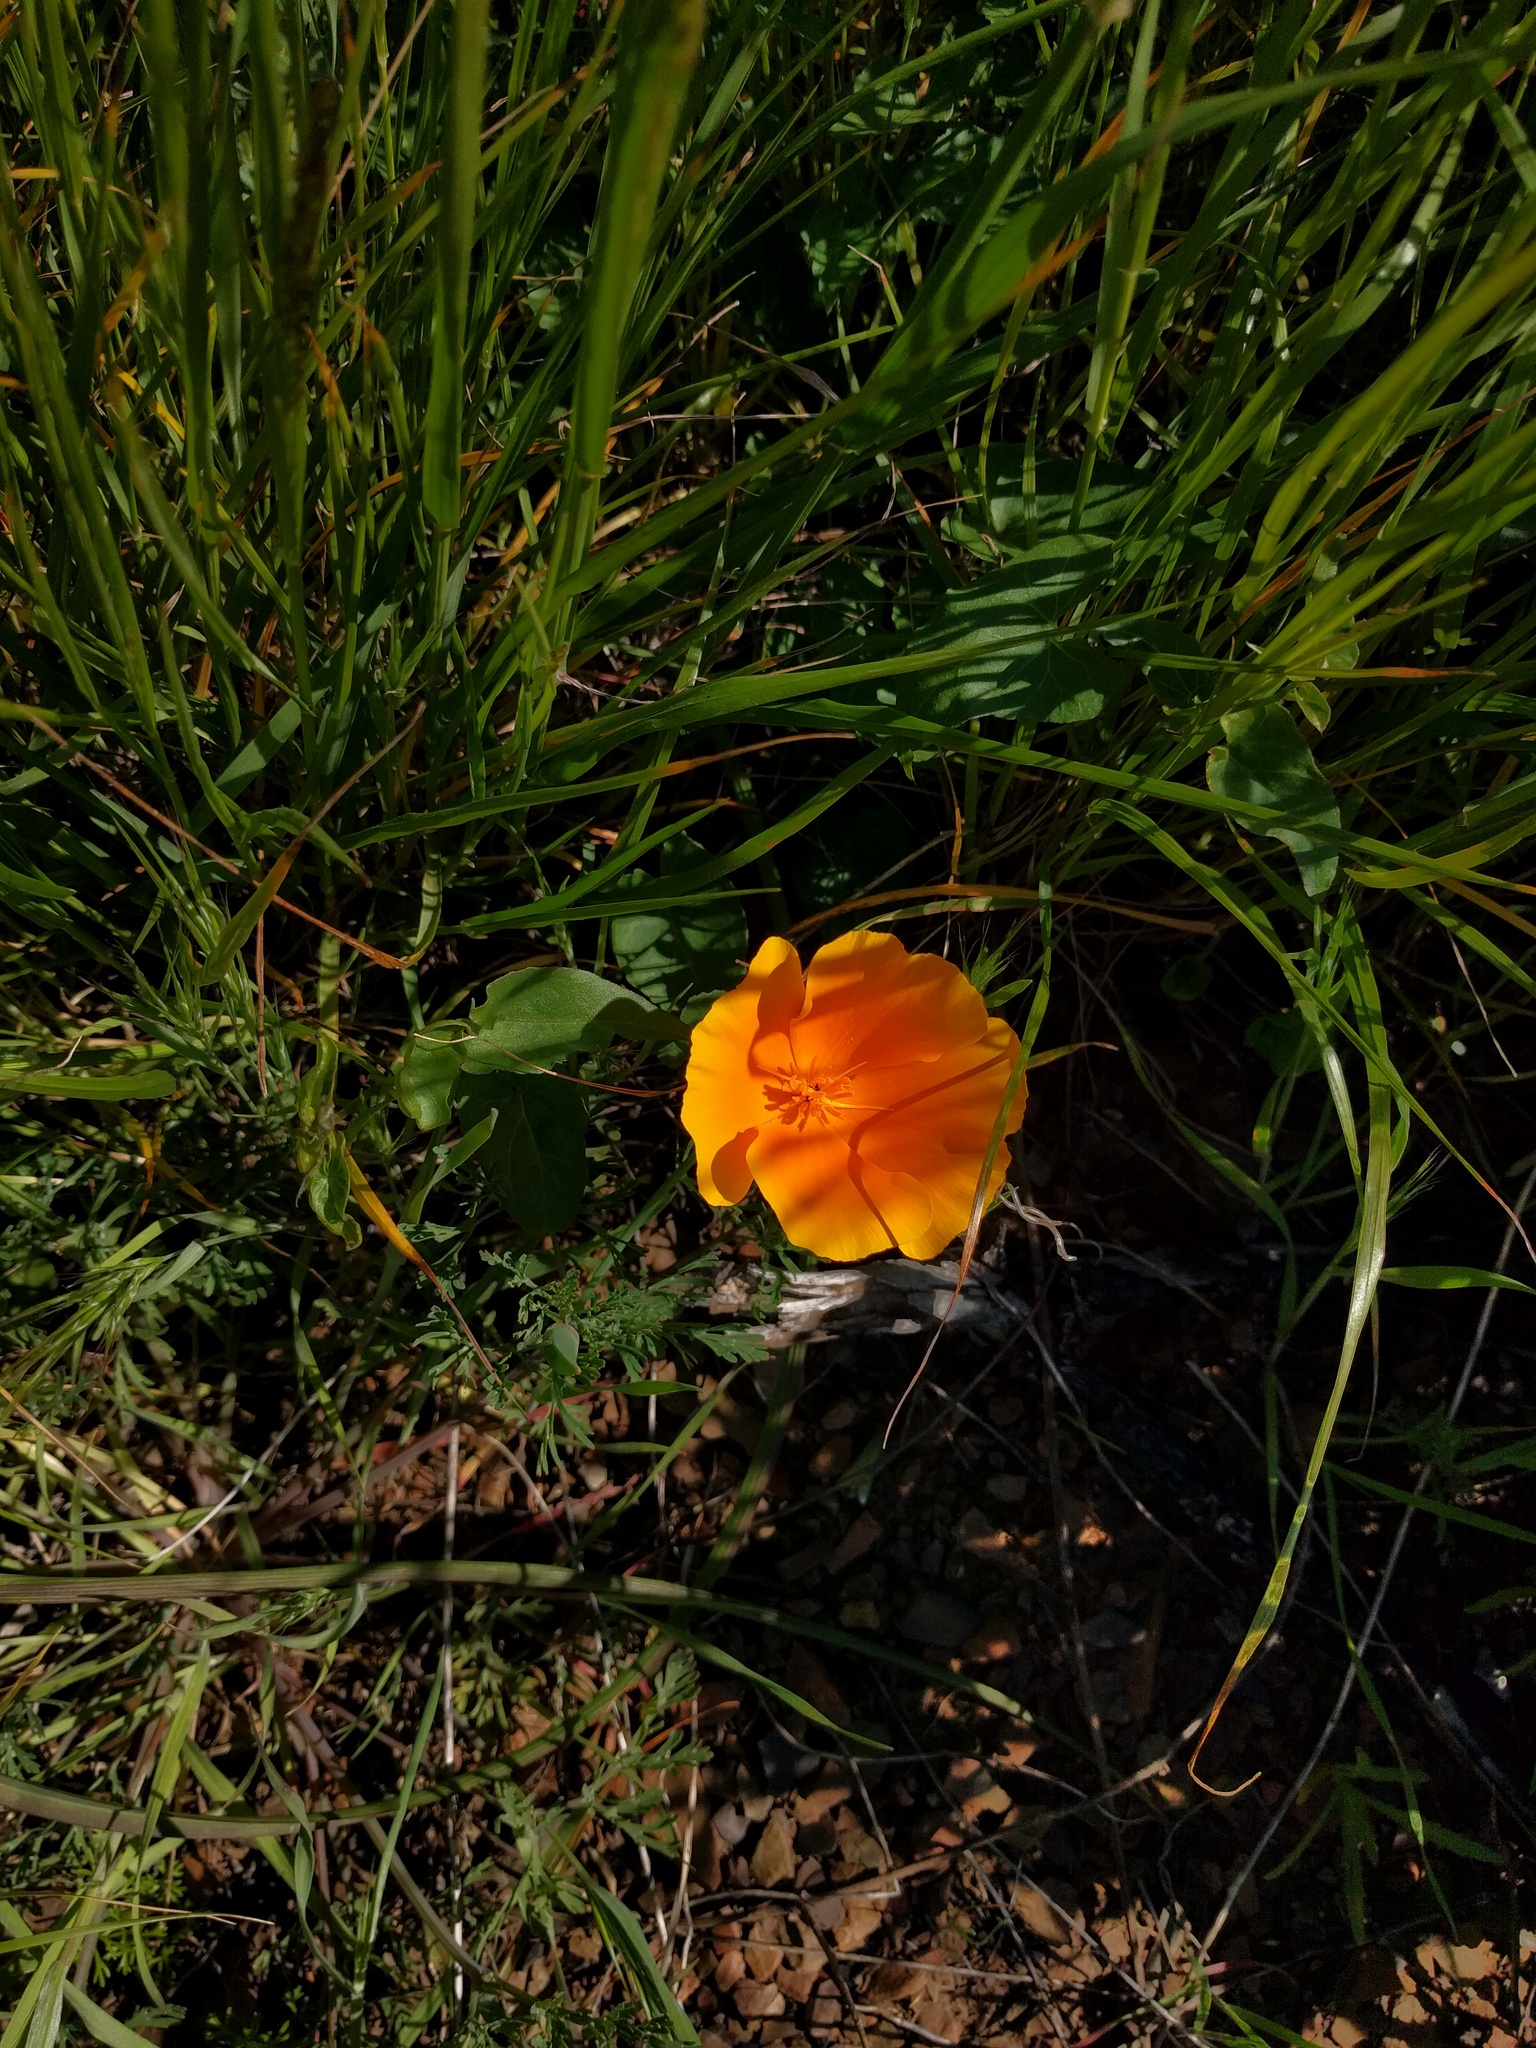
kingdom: Plantae
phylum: Tracheophyta
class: Magnoliopsida
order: Ranunculales
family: Papaveraceae
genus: Eschscholzia
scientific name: Eschscholzia californica
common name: California poppy
